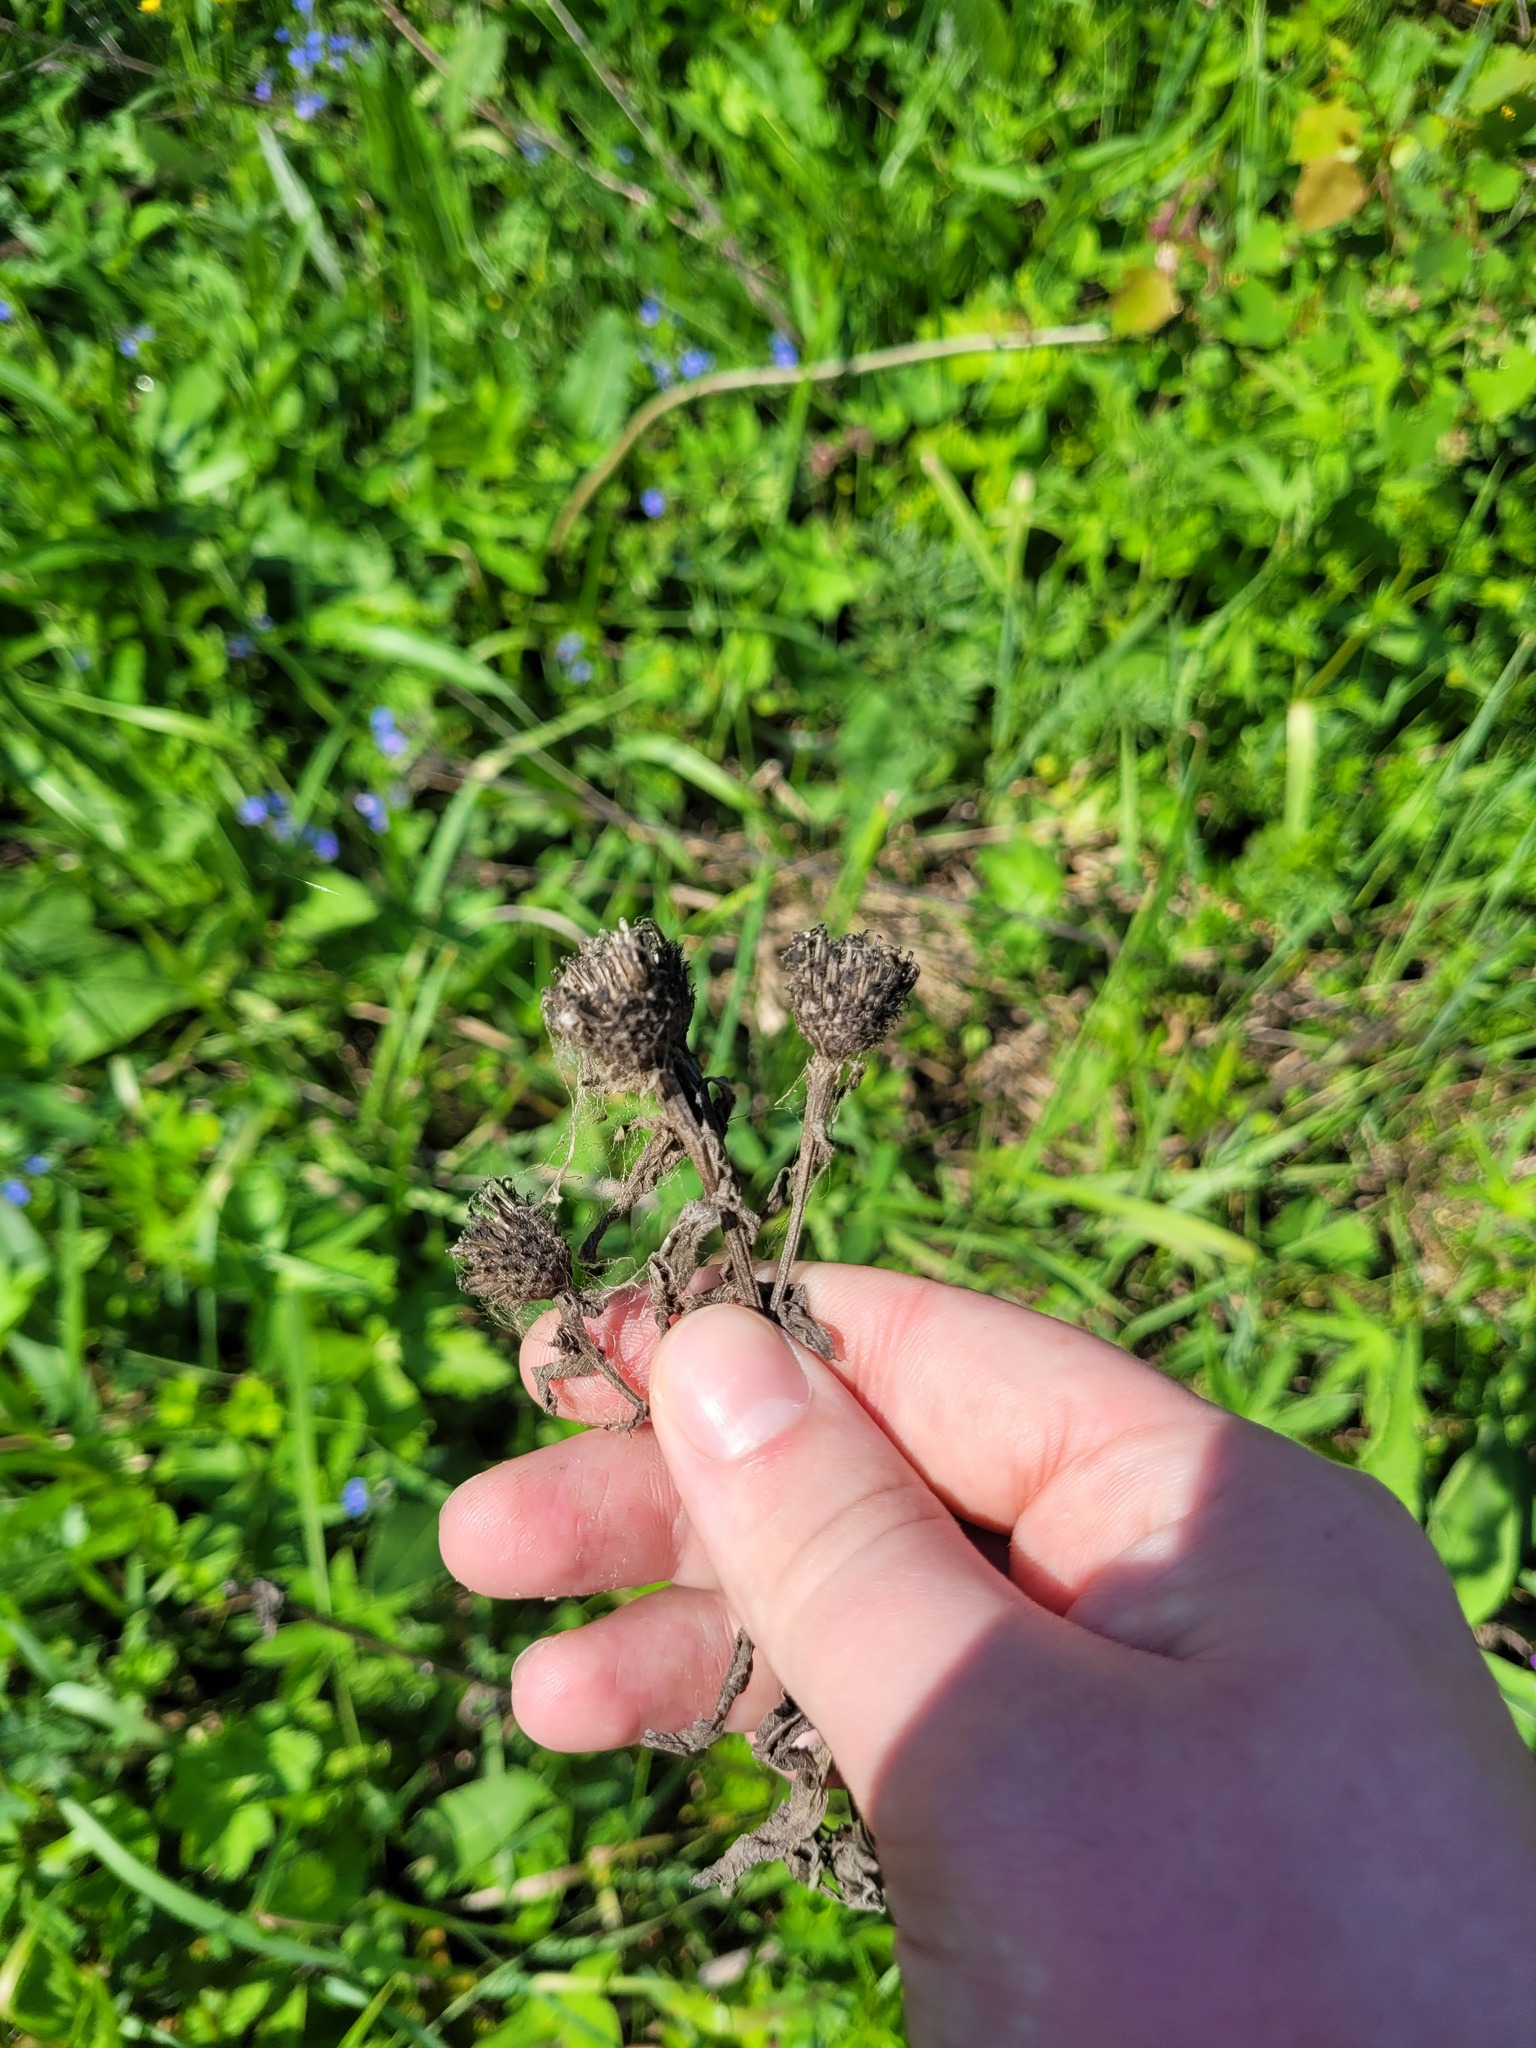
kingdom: Plantae
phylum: Tracheophyta
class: Magnoliopsida
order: Asterales
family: Asteraceae
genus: Centaurea
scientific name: Centaurea pseudophrygia
